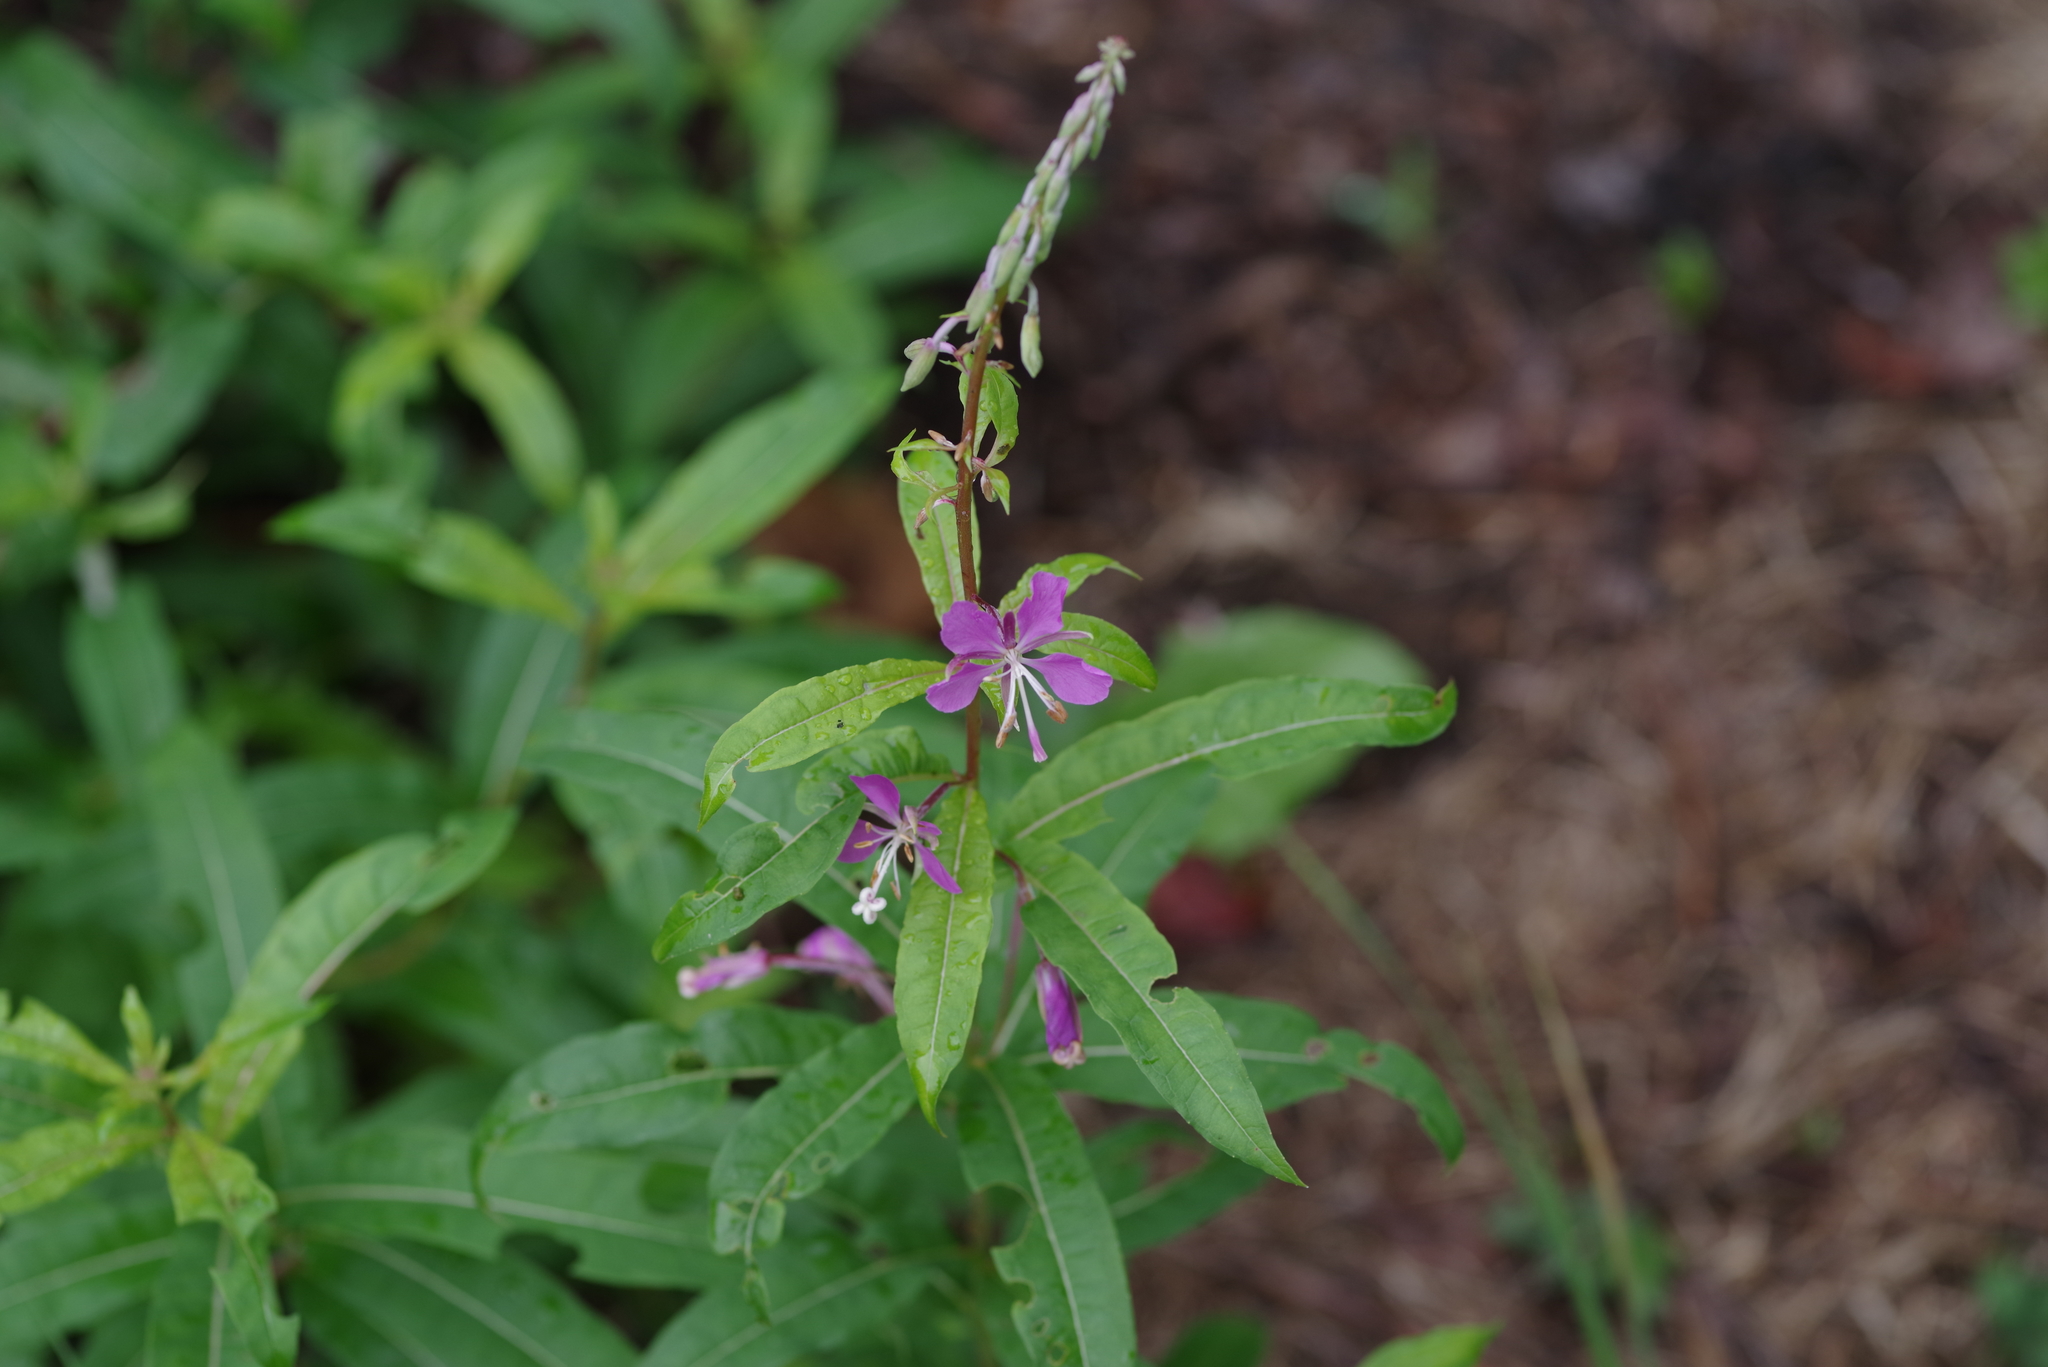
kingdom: Plantae
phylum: Tracheophyta
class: Magnoliopsida
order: Myrtales
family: Onagraceae
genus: Chamaenerion
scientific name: Chamaenerion angustifolium
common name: Fireweed
